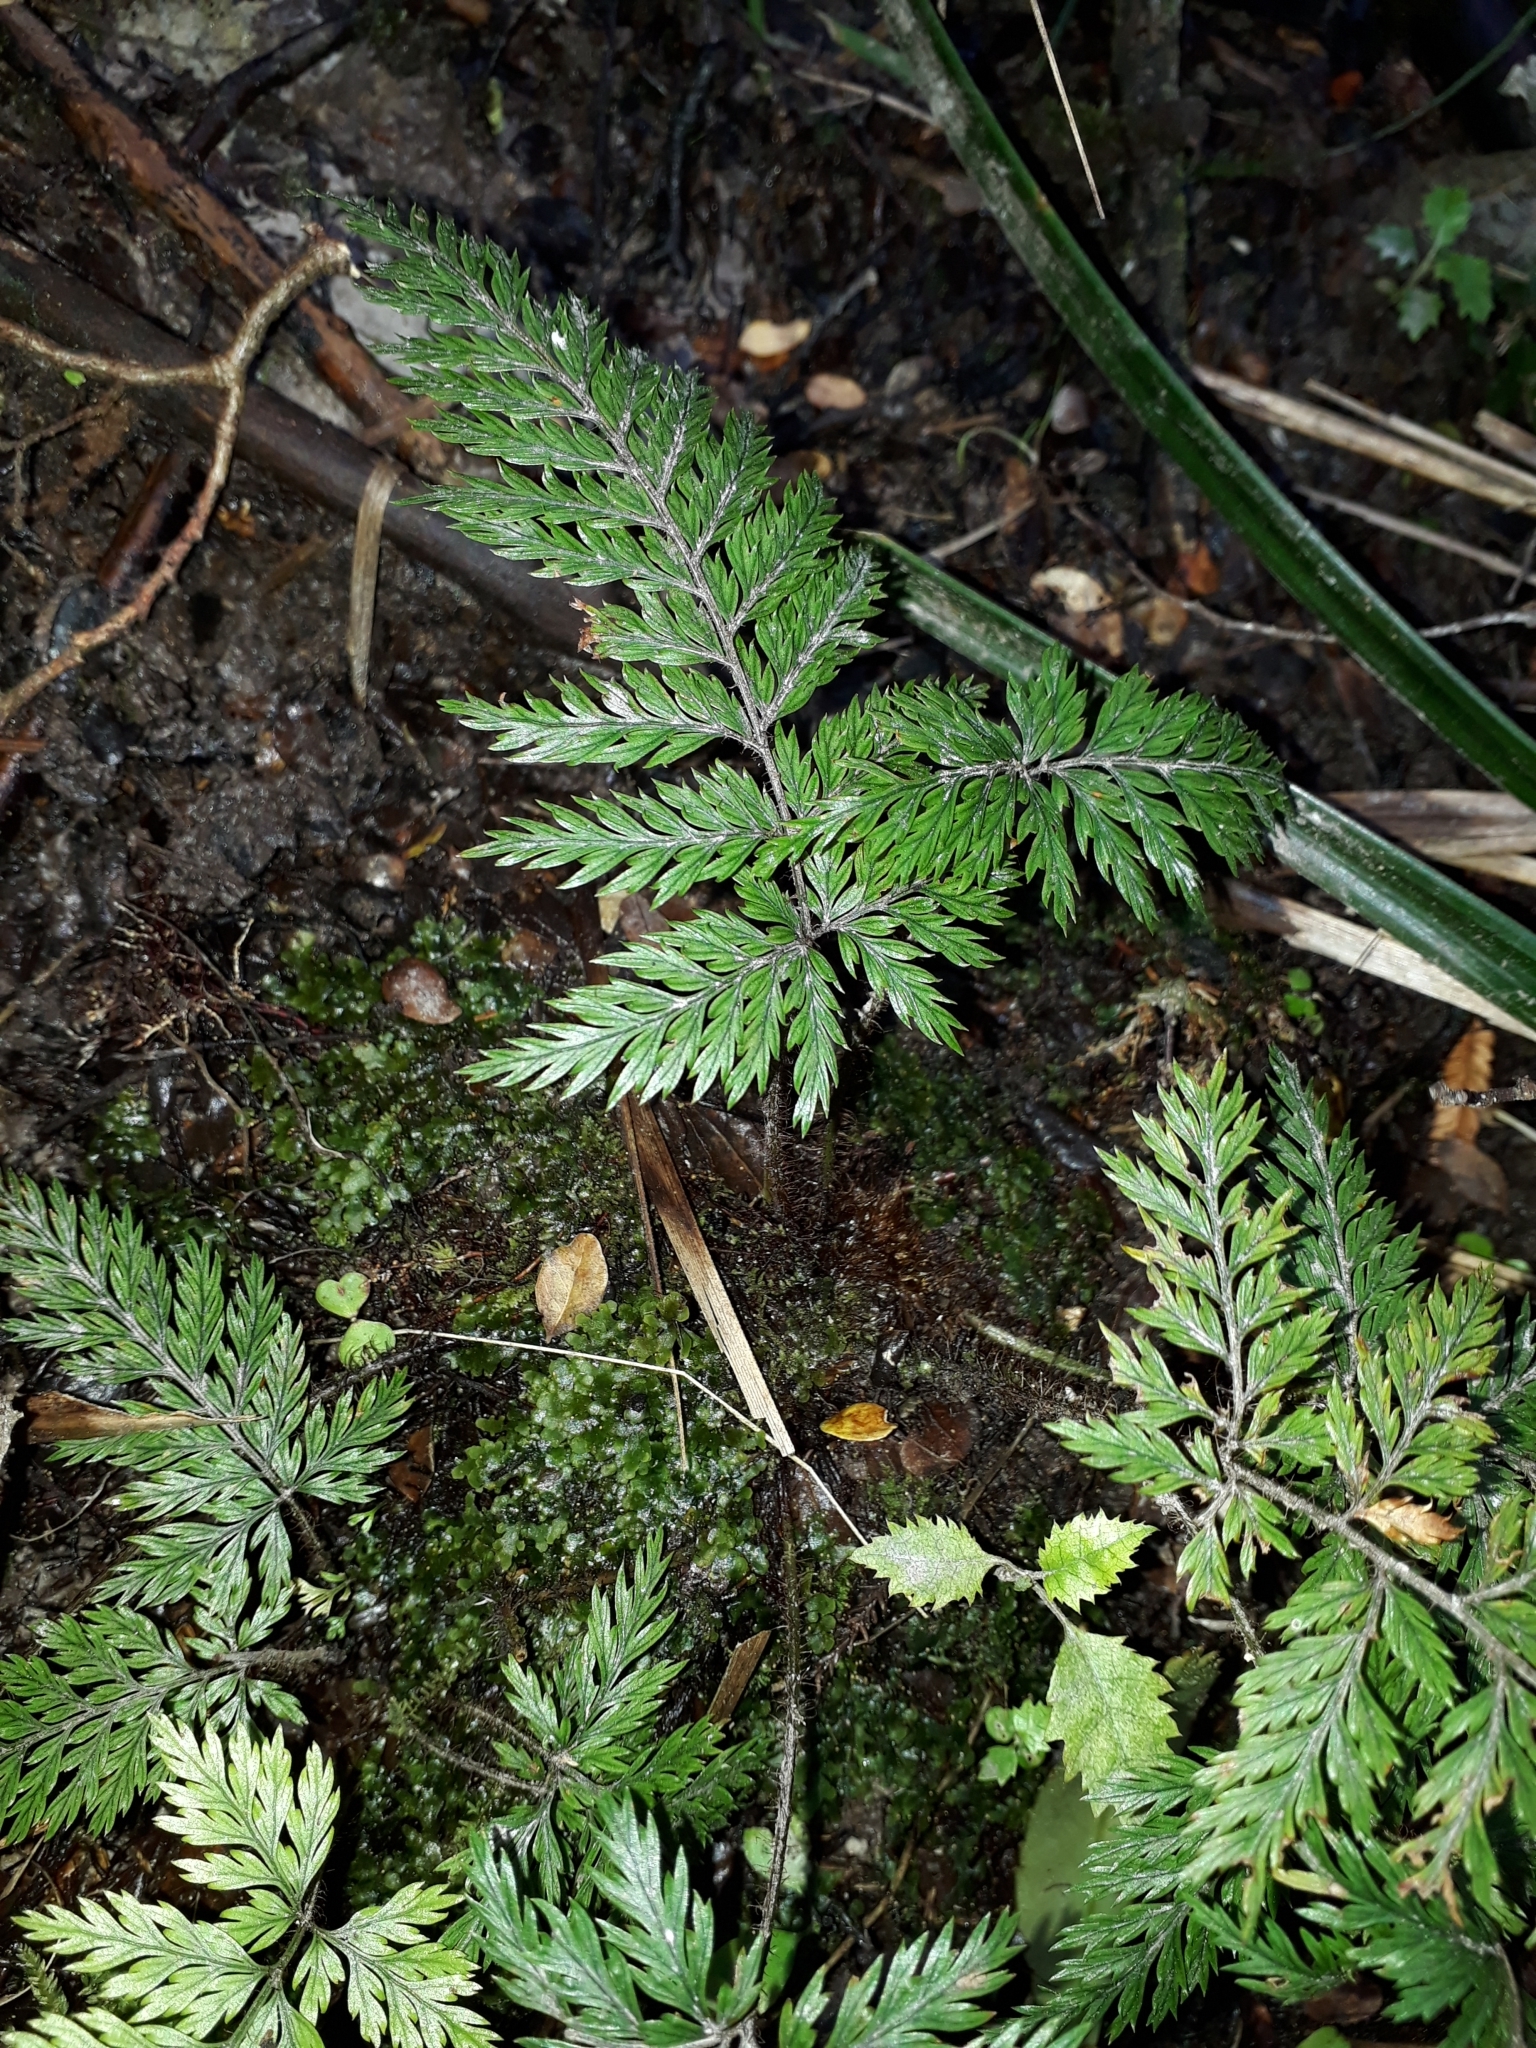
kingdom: Plantae
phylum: Tracheophyta
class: Polypodiopsida
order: Polypodiales
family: Dryopteridaceae
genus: Lastreopsis
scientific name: Lastreopsis hispida
